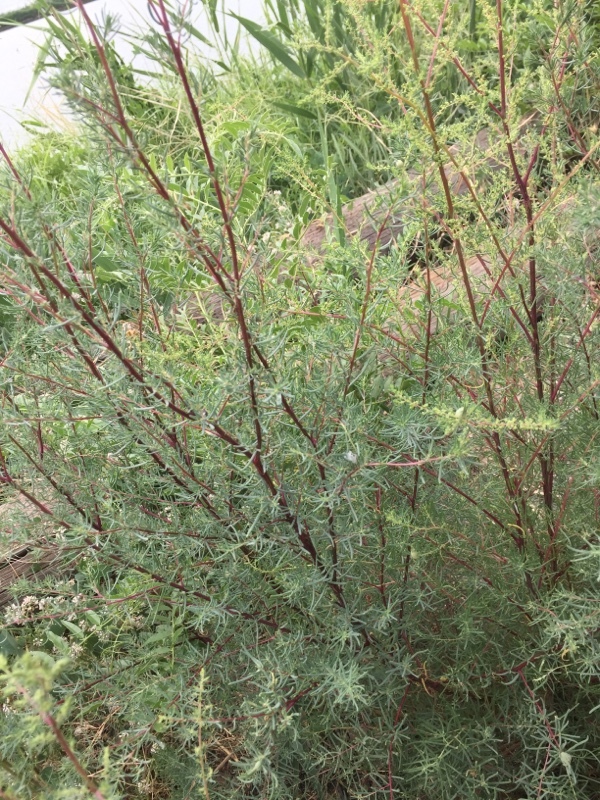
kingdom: Plantae
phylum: Tracheophyta
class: Magnoliopsida
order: Asterales
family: Asteraceae
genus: Artemisia
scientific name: Artemisia campestris
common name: Field wormwood
